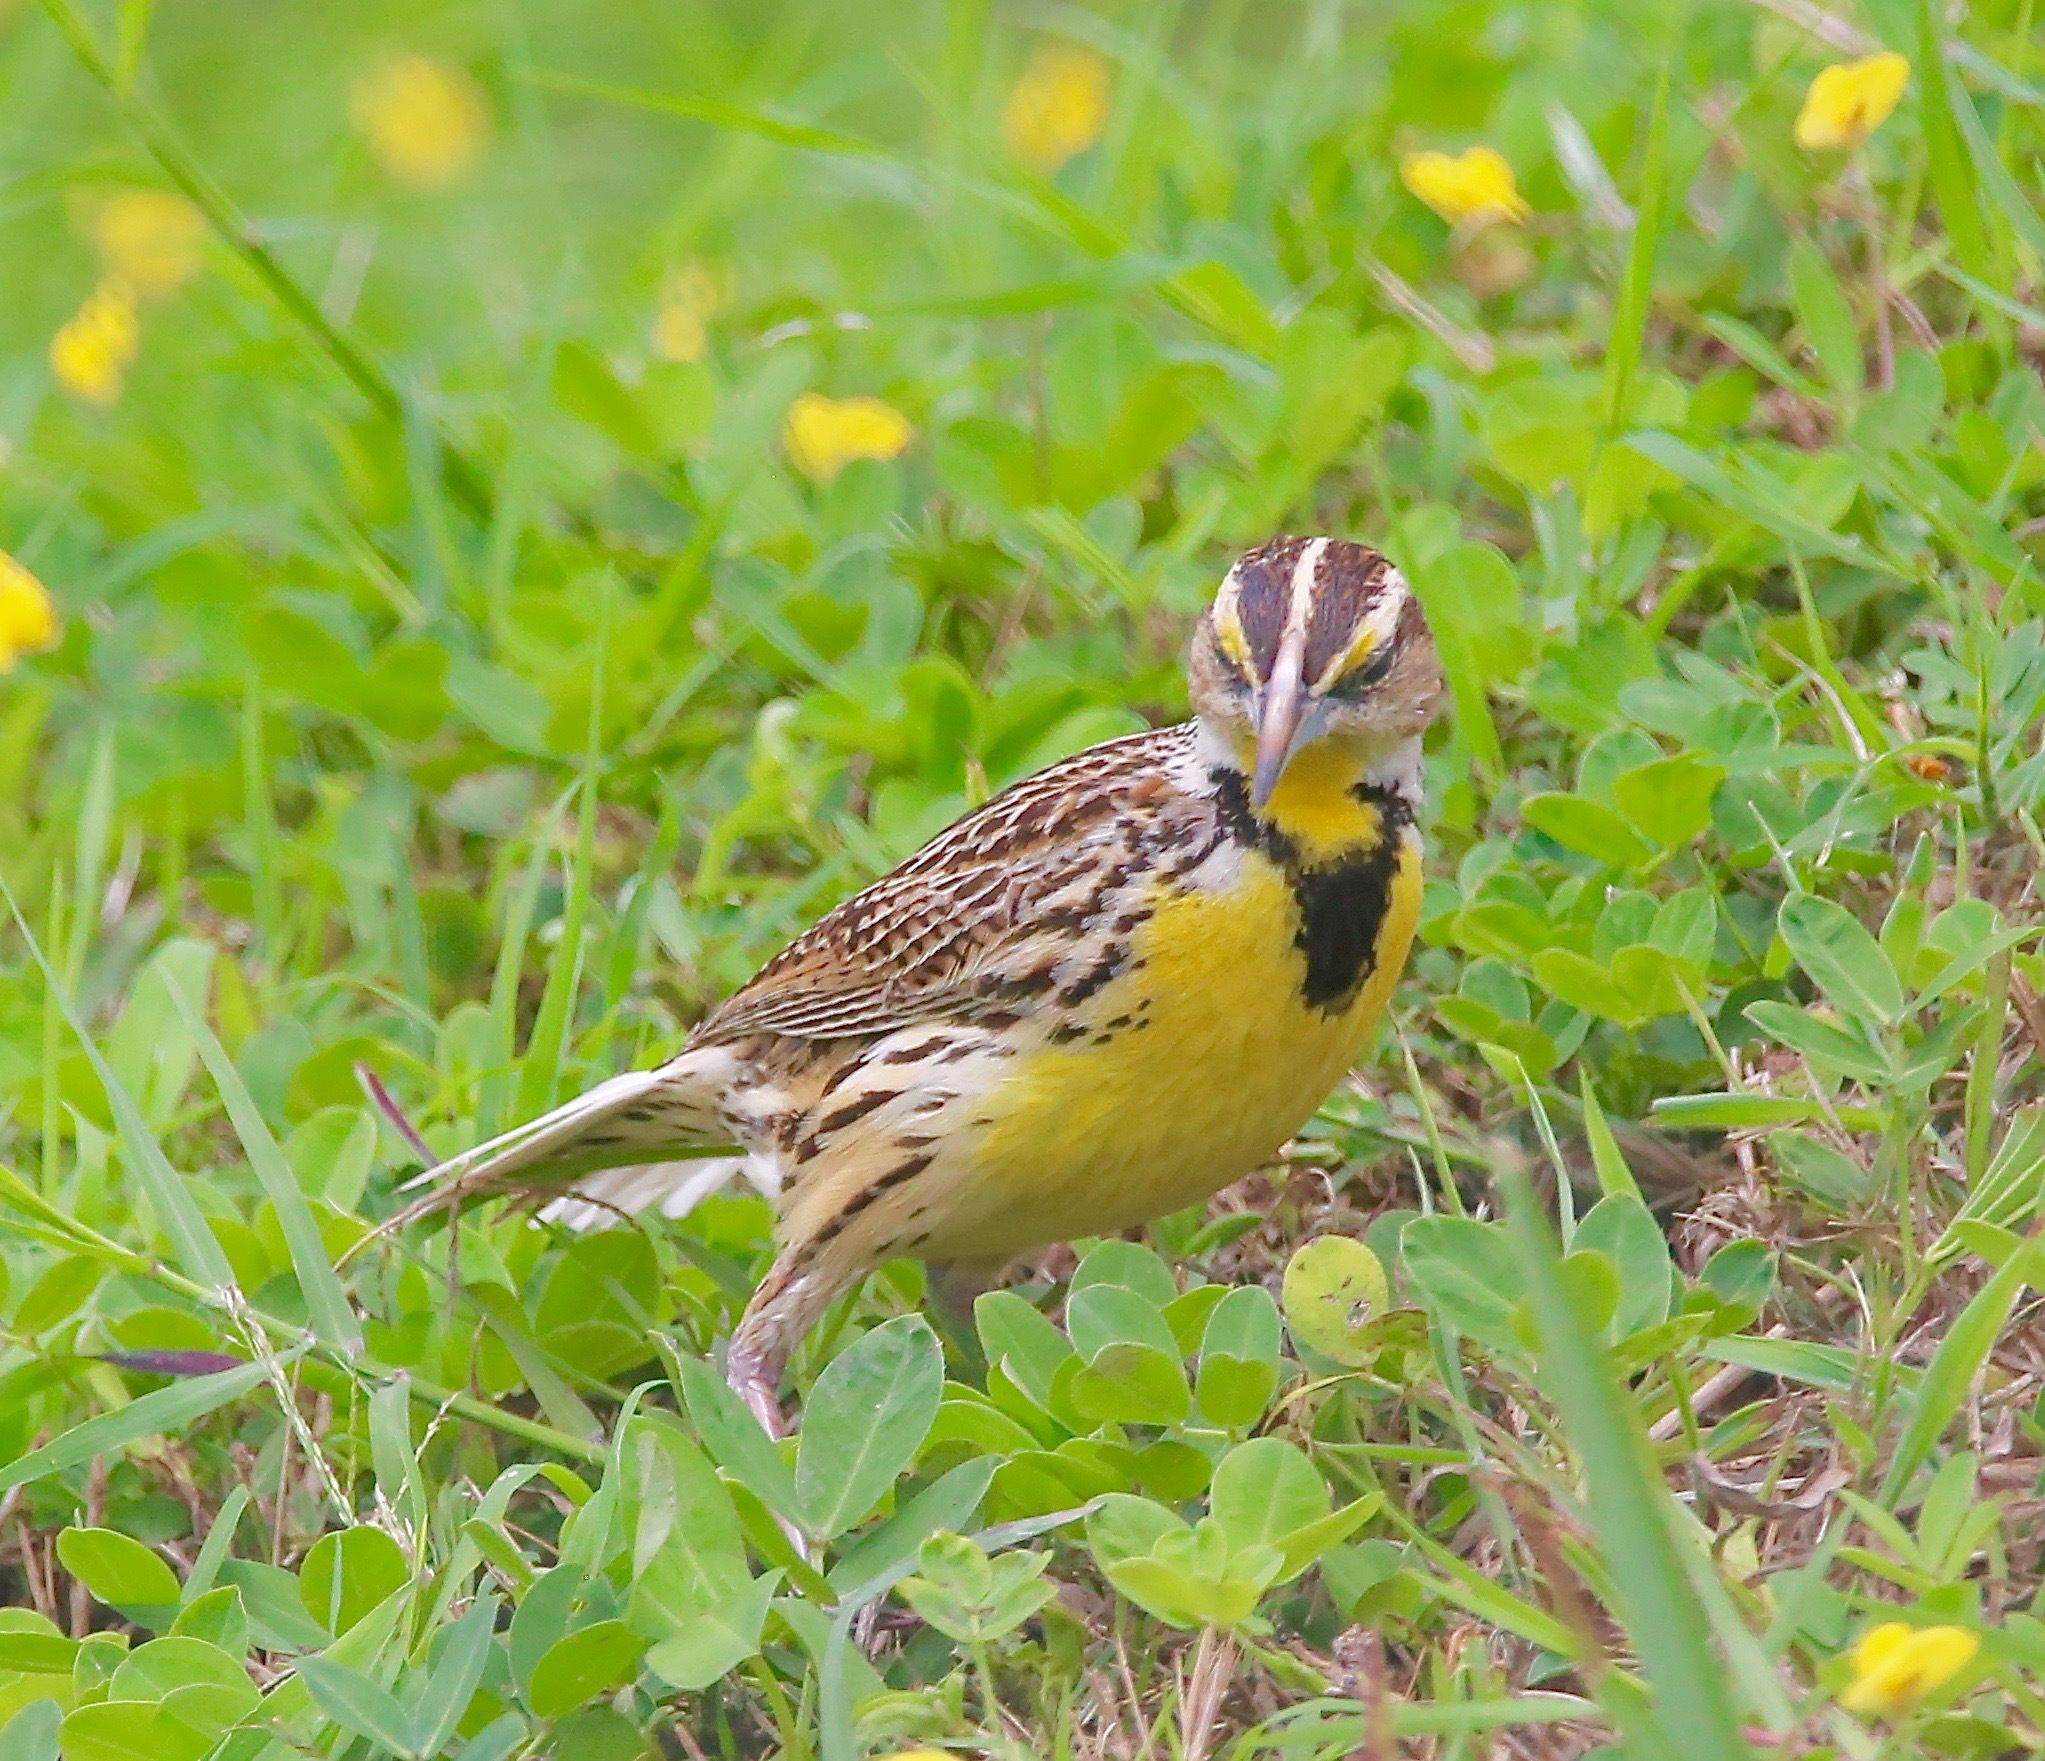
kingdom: Animalia
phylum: Chordata
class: Aves
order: Passeriformes
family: Icteridae
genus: Sturnella
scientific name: Sturnella magna
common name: Eastern meadowlark
